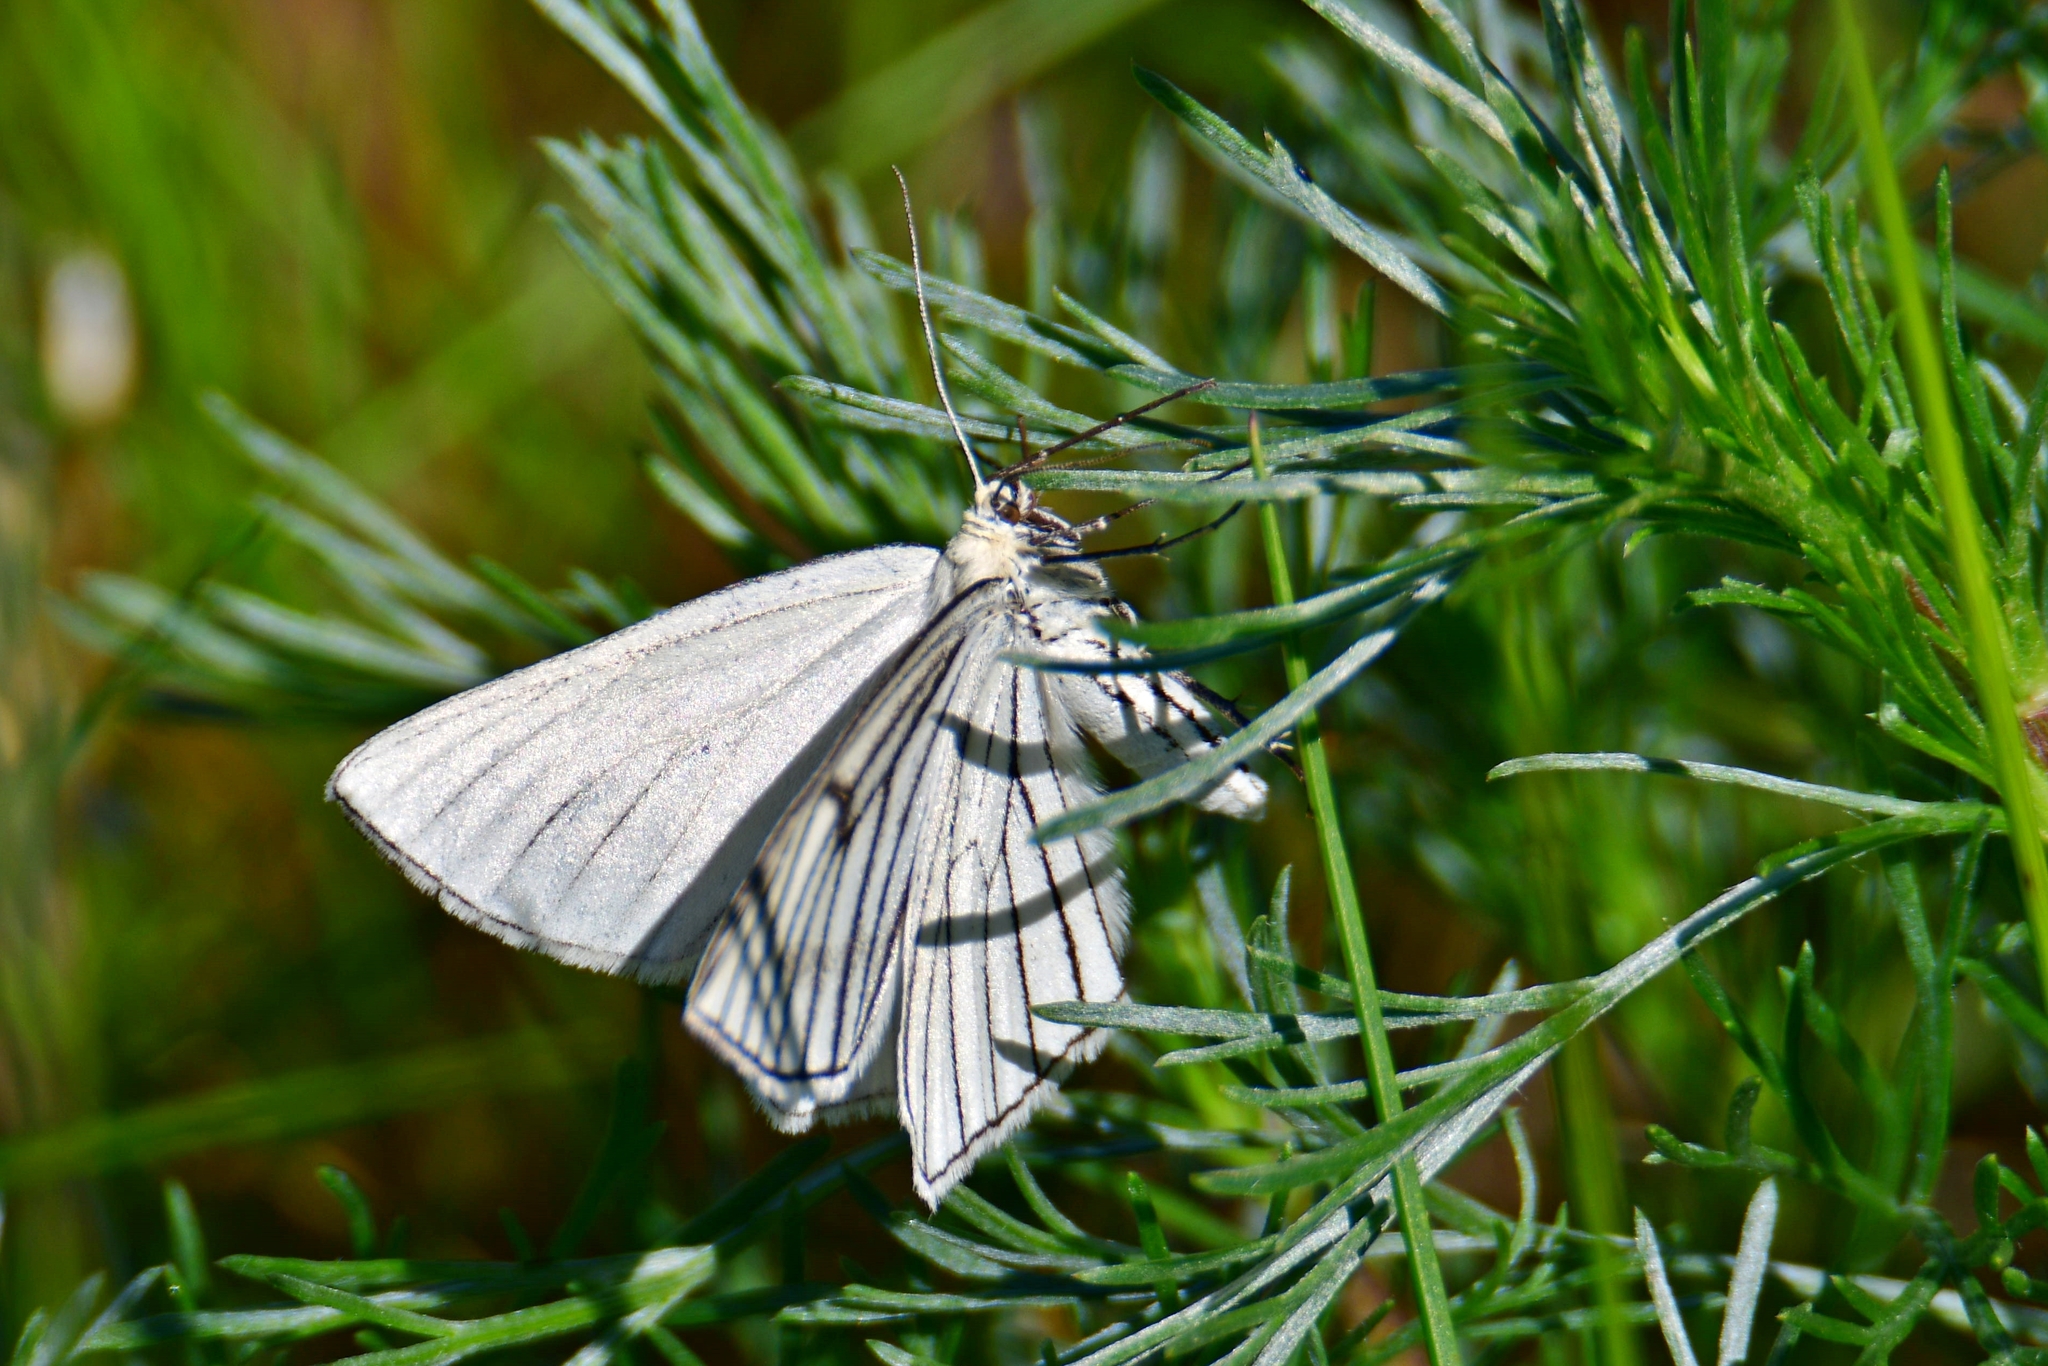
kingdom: Animalia
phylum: Arthropoda
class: Insecta
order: Lepidoptera
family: Geometridae
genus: Siona
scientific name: Siona lineata
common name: Black-veined moth
